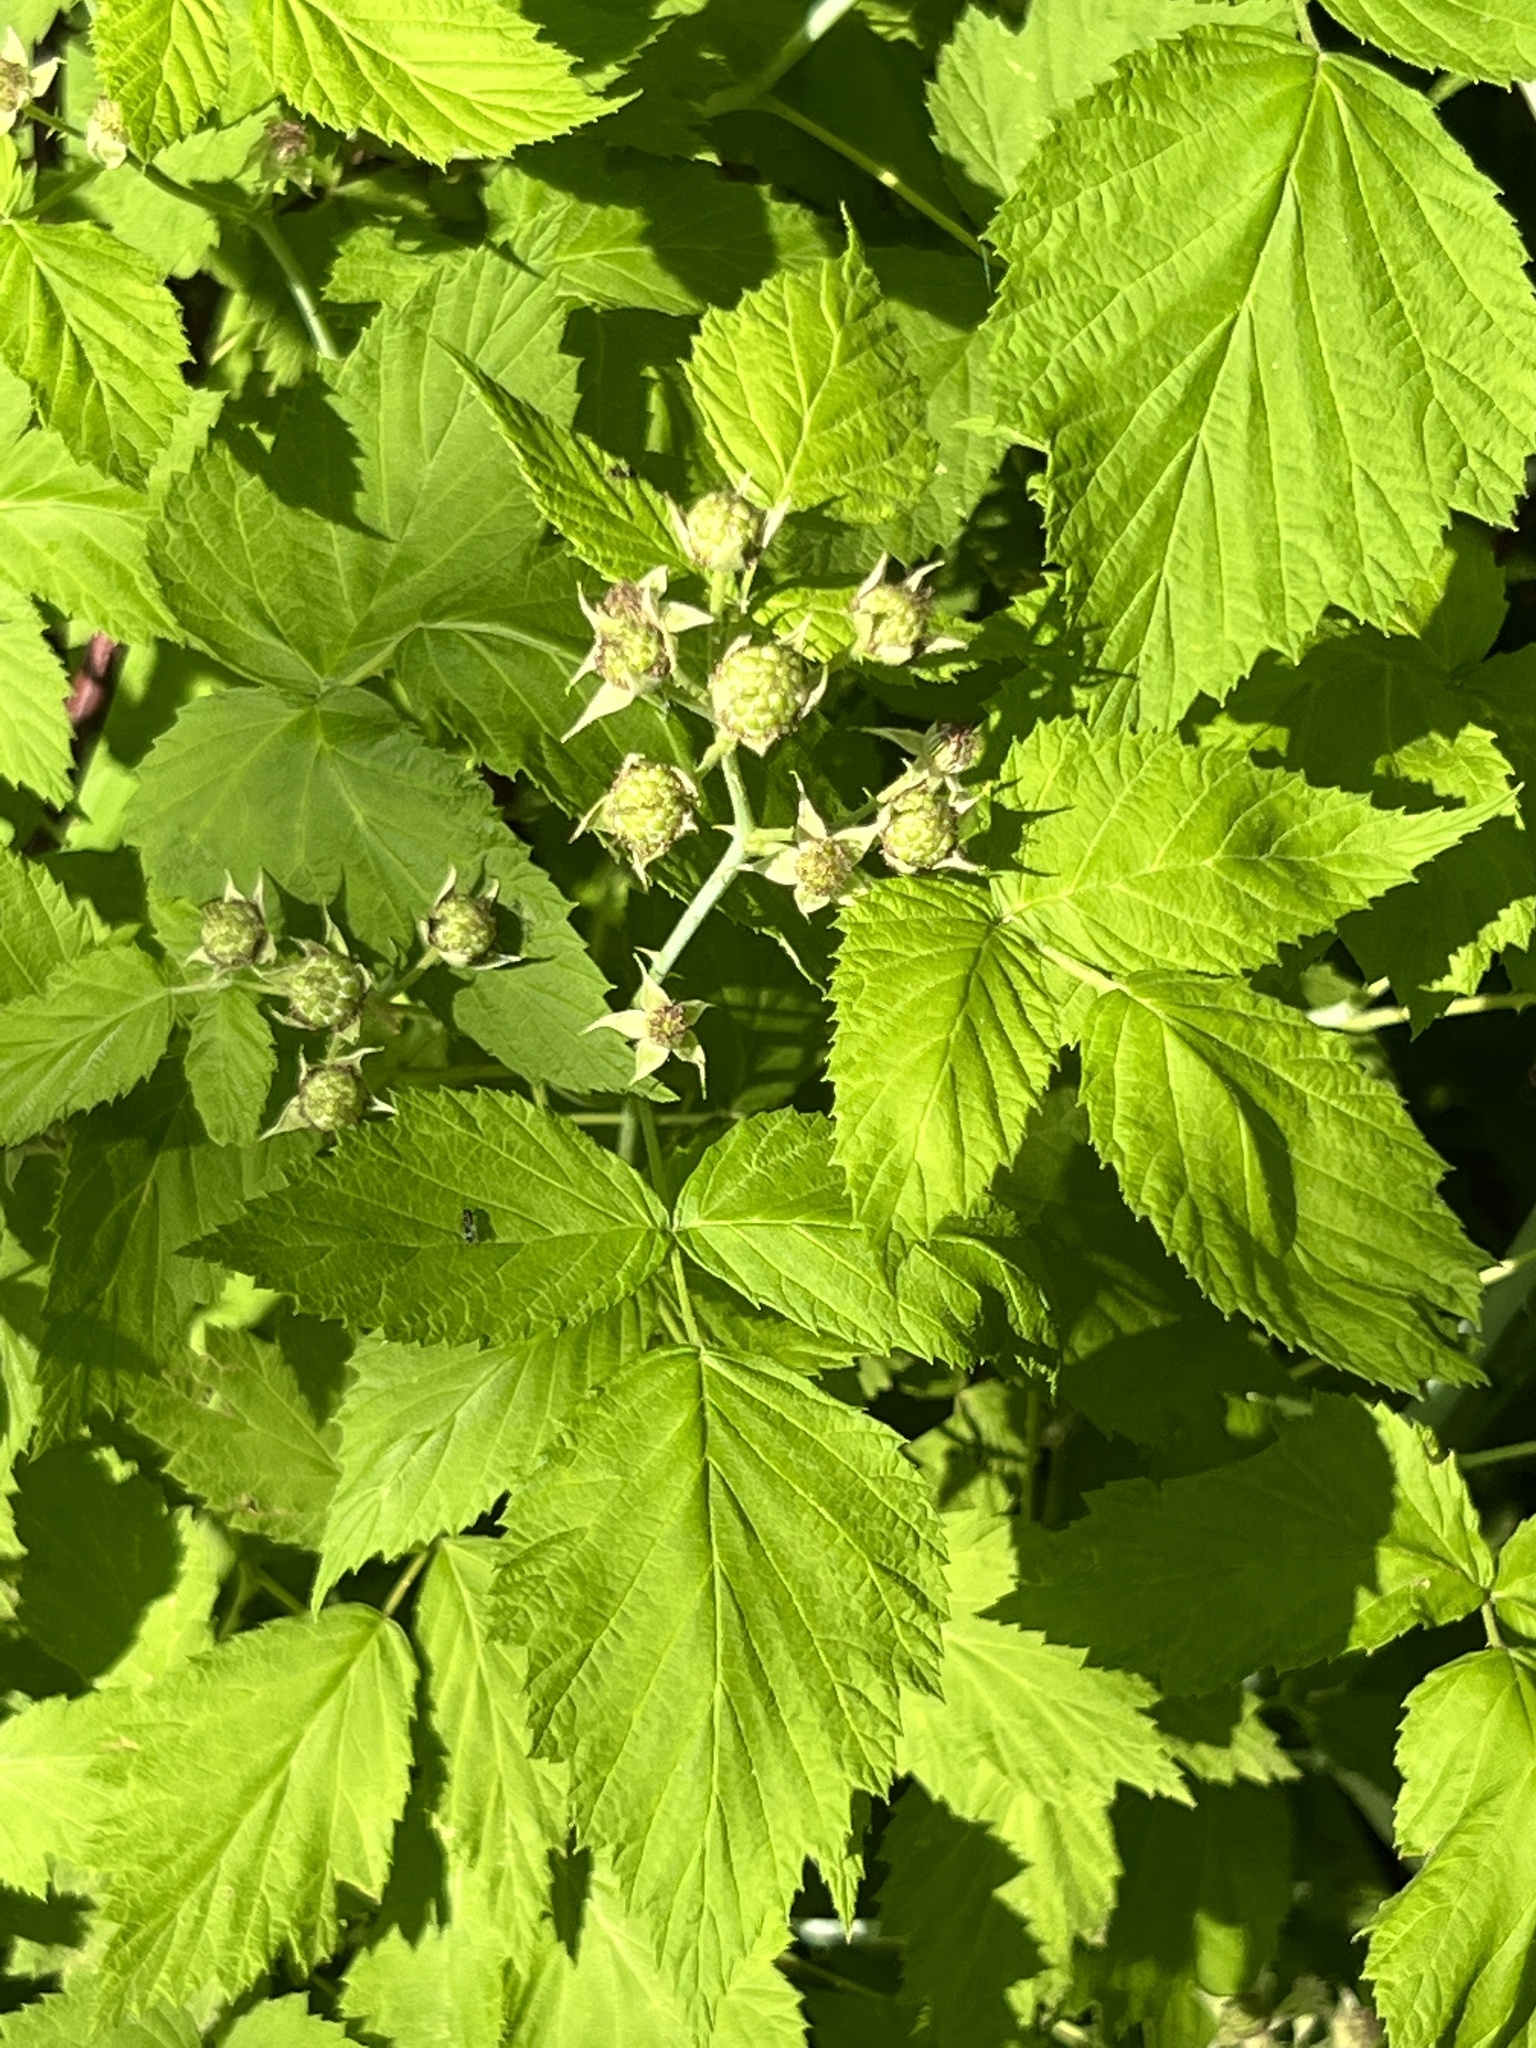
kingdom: Plantae
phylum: Tracheophyta
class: Magnoliopsida
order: Rosales
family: Rosaceae
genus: Rubus
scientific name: Rubus occidentalis
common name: Black raspberry
